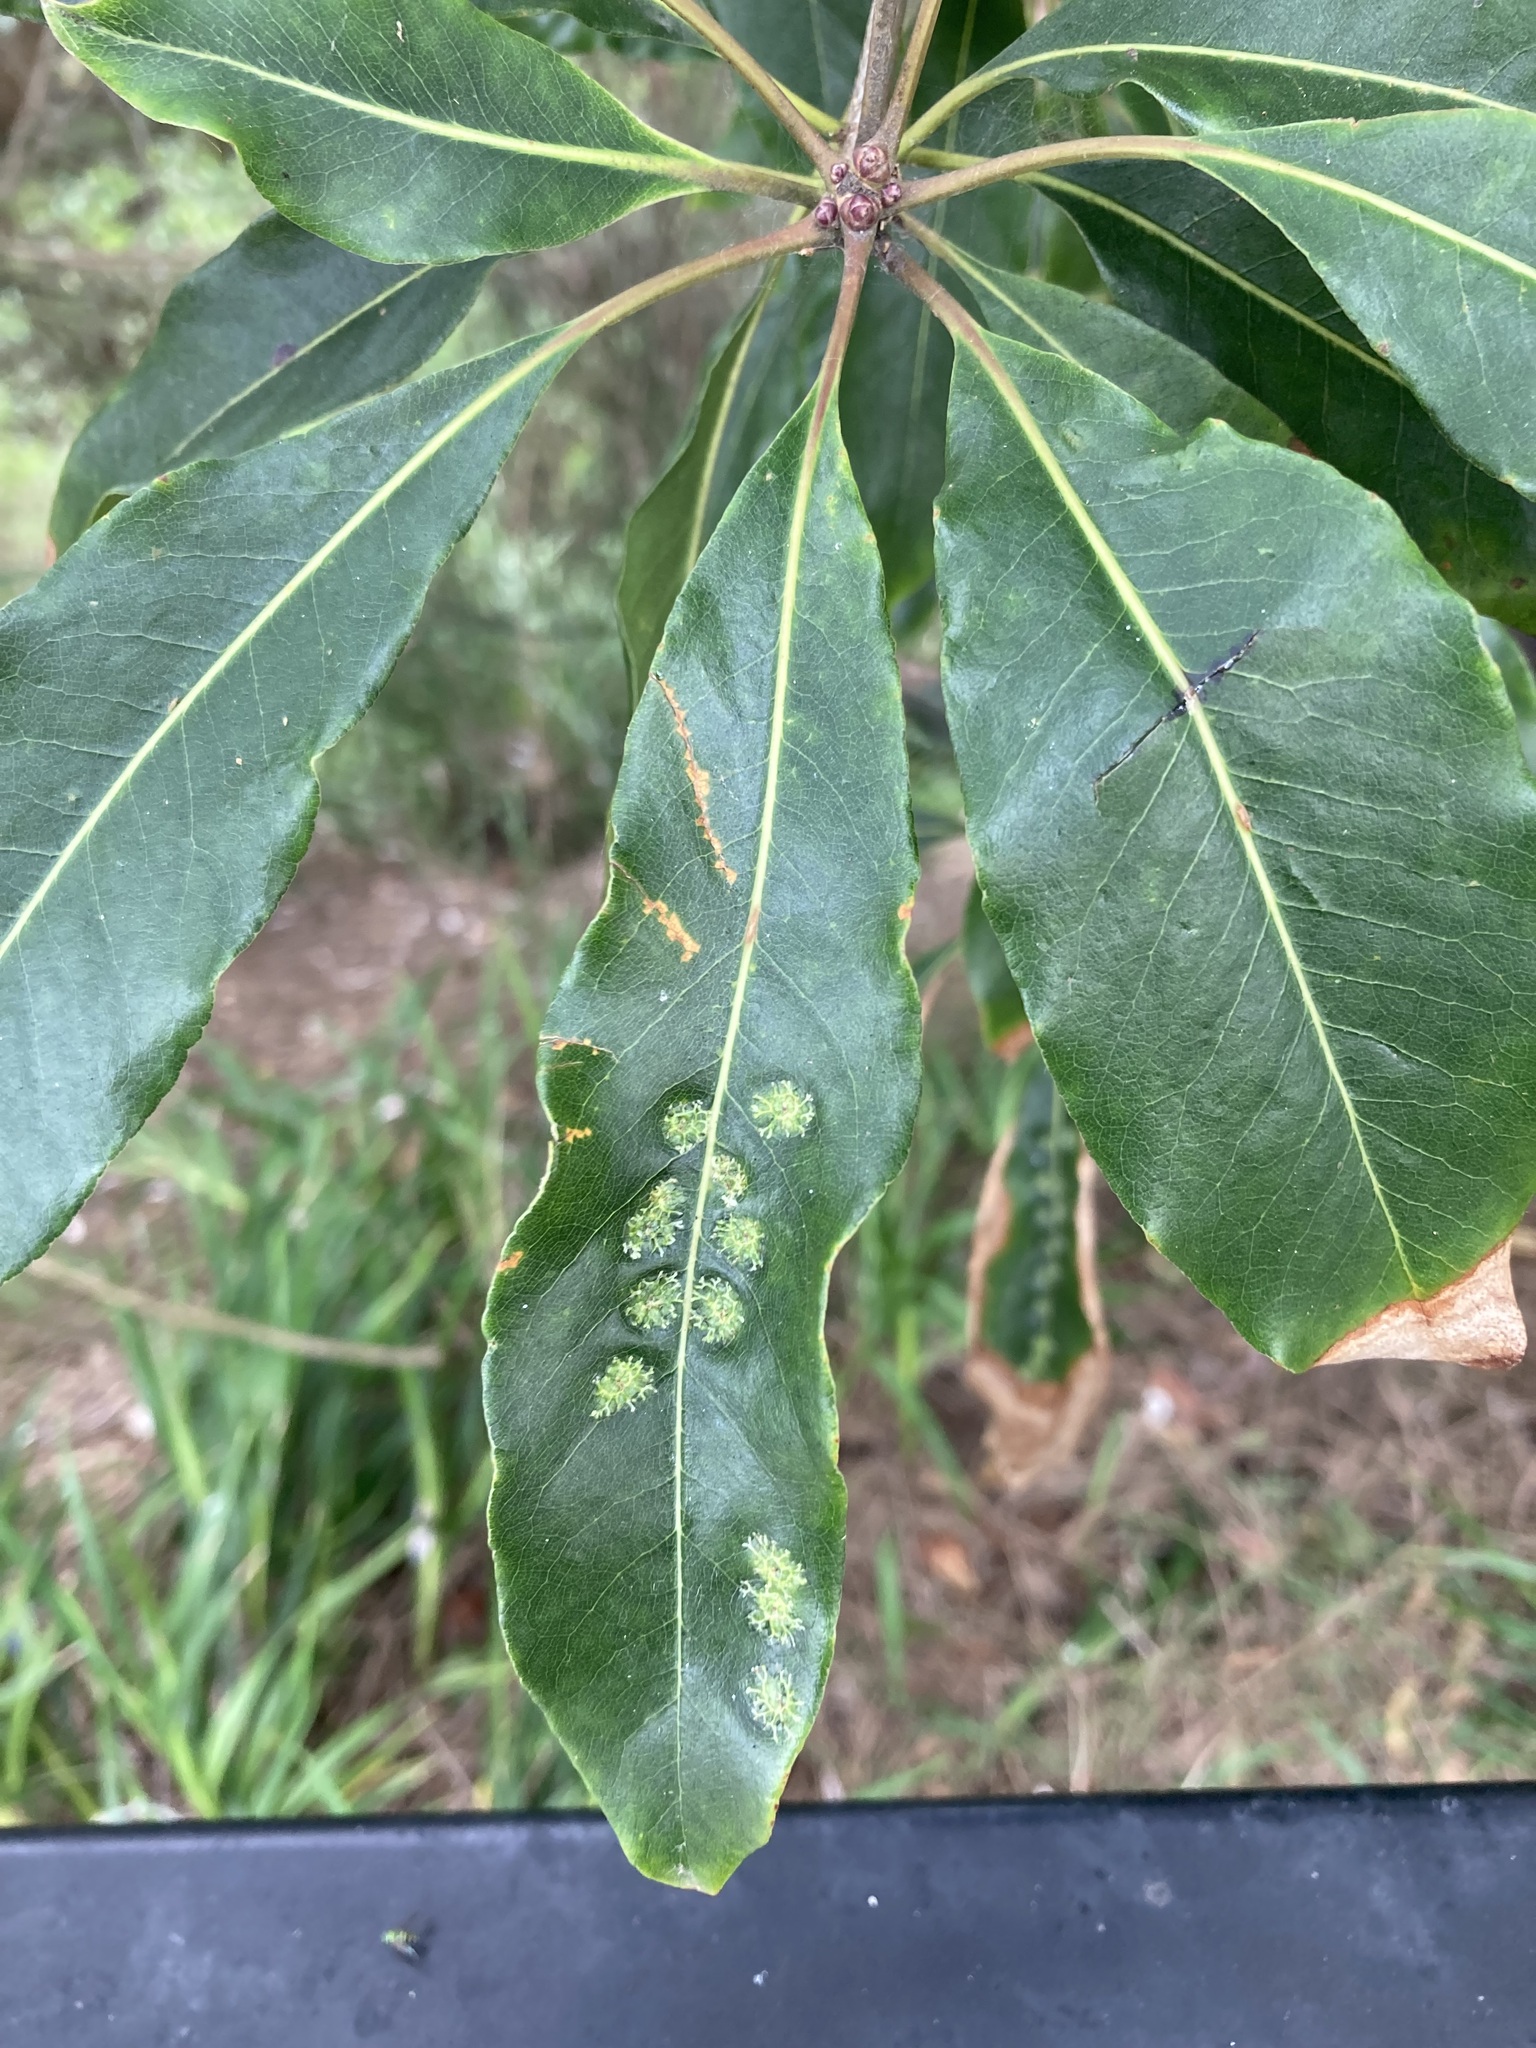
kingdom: Animalia
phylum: Arthropoda
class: Insecta
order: Diptera
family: Agromyzidae
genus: Phytoliriomyza
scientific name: Phytoliriomyza pittosporophylli
